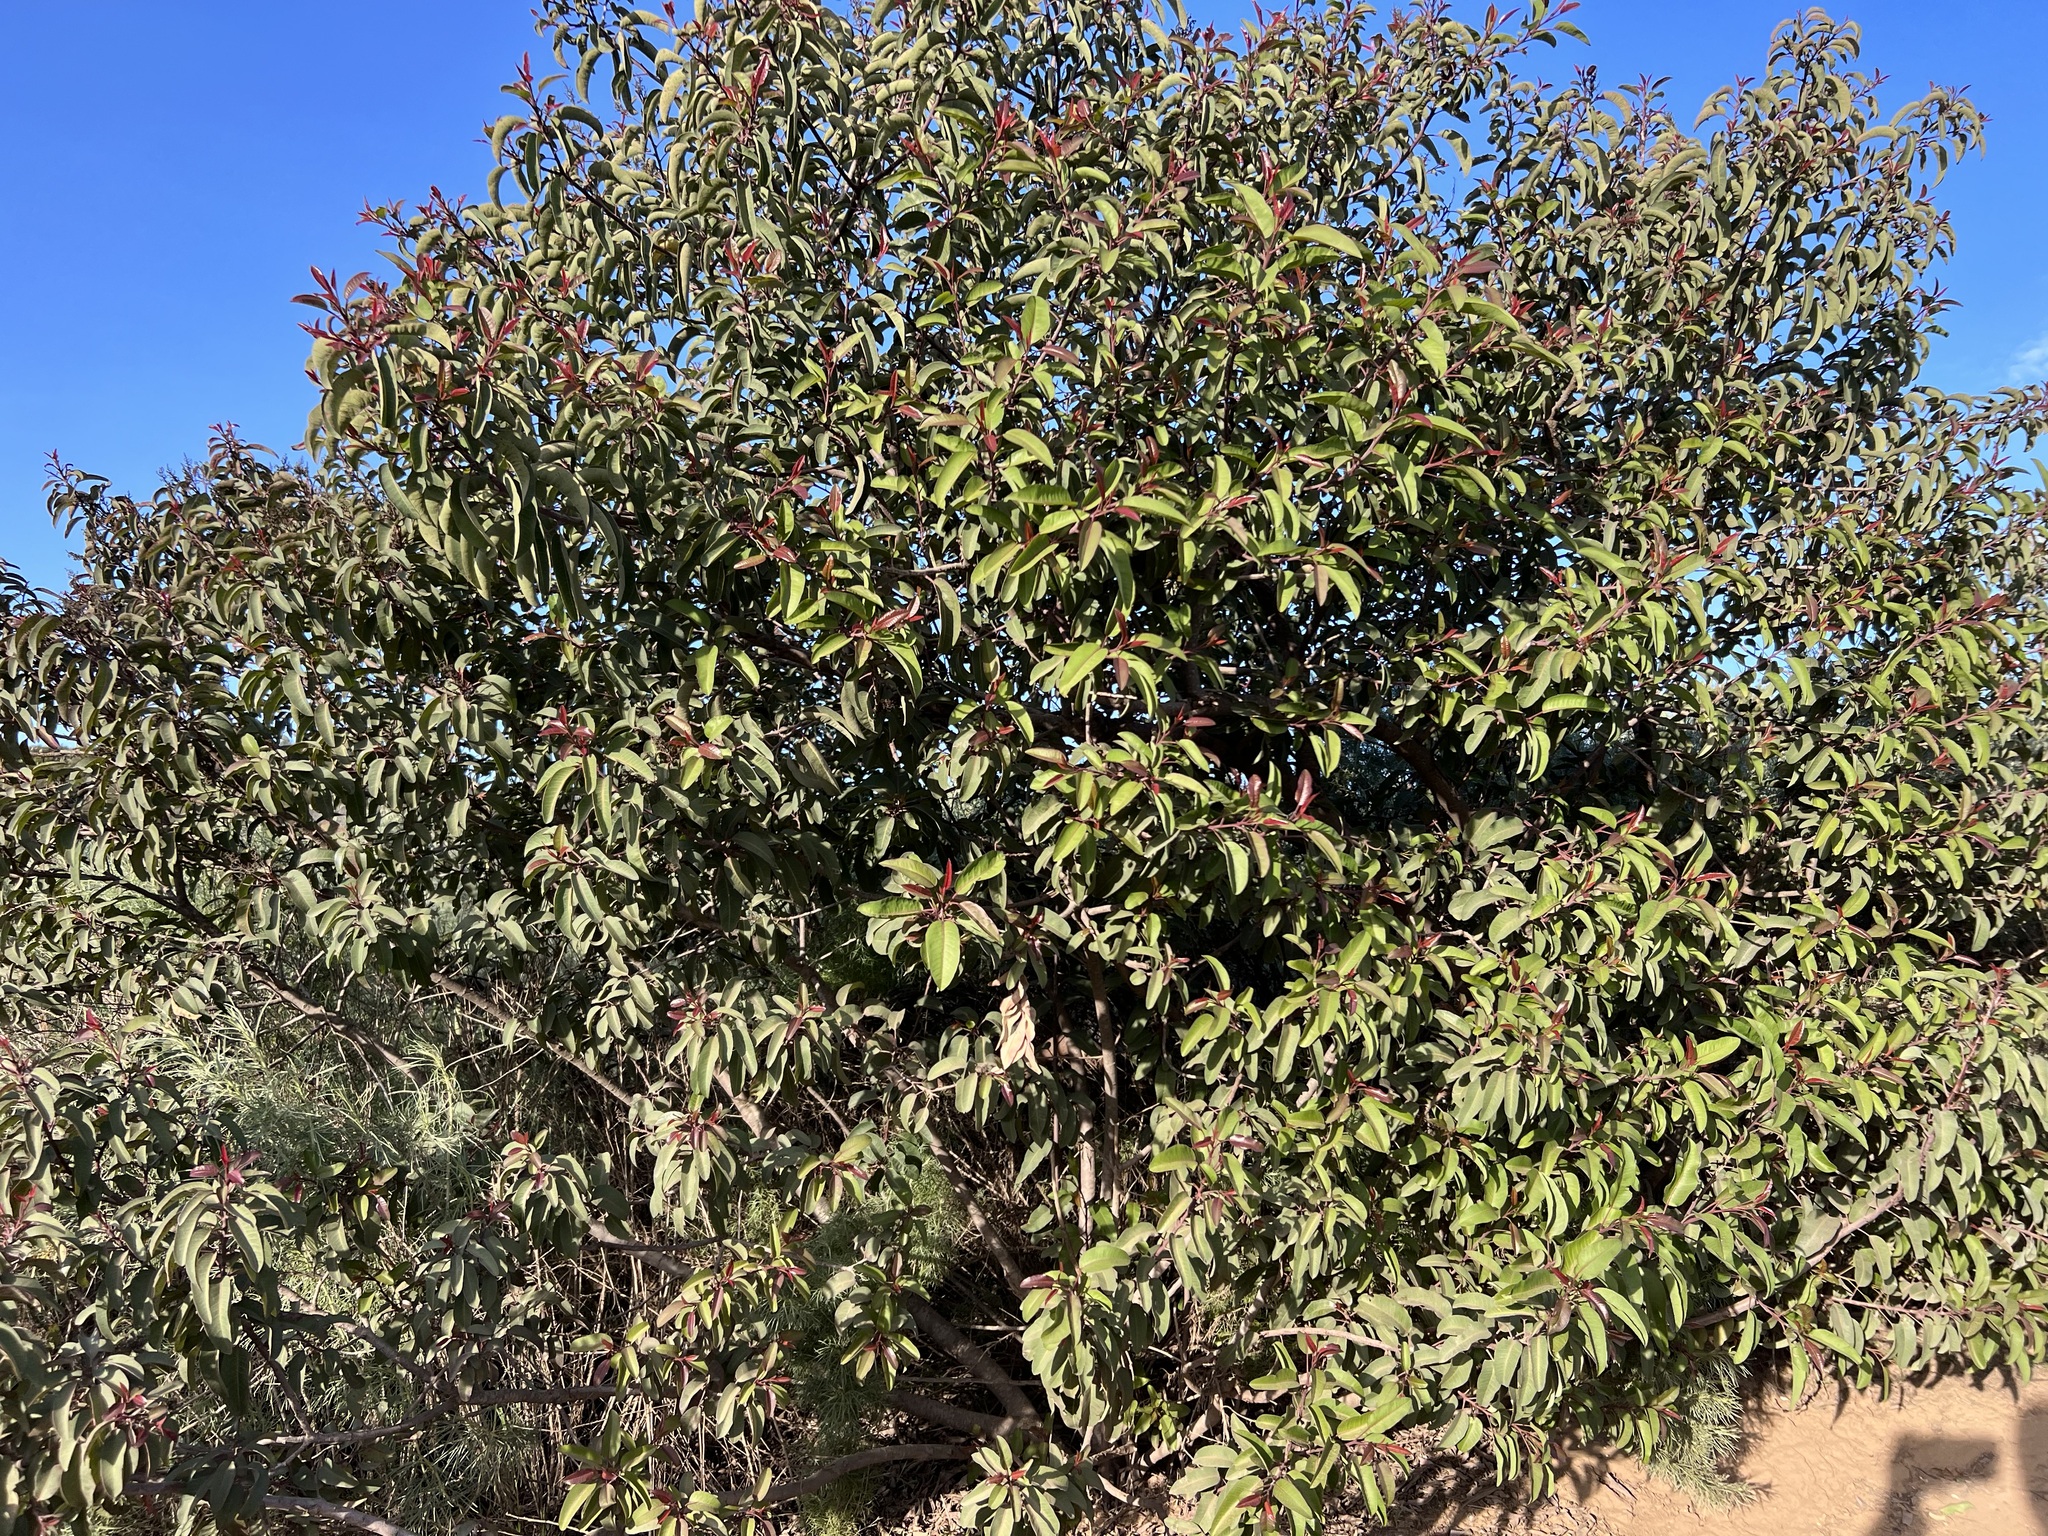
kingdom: Plantae
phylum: Tracheophyta
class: Magnoliopsida
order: Sapindales
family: Anacardiaceae
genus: Malosma
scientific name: Malosma laurina
